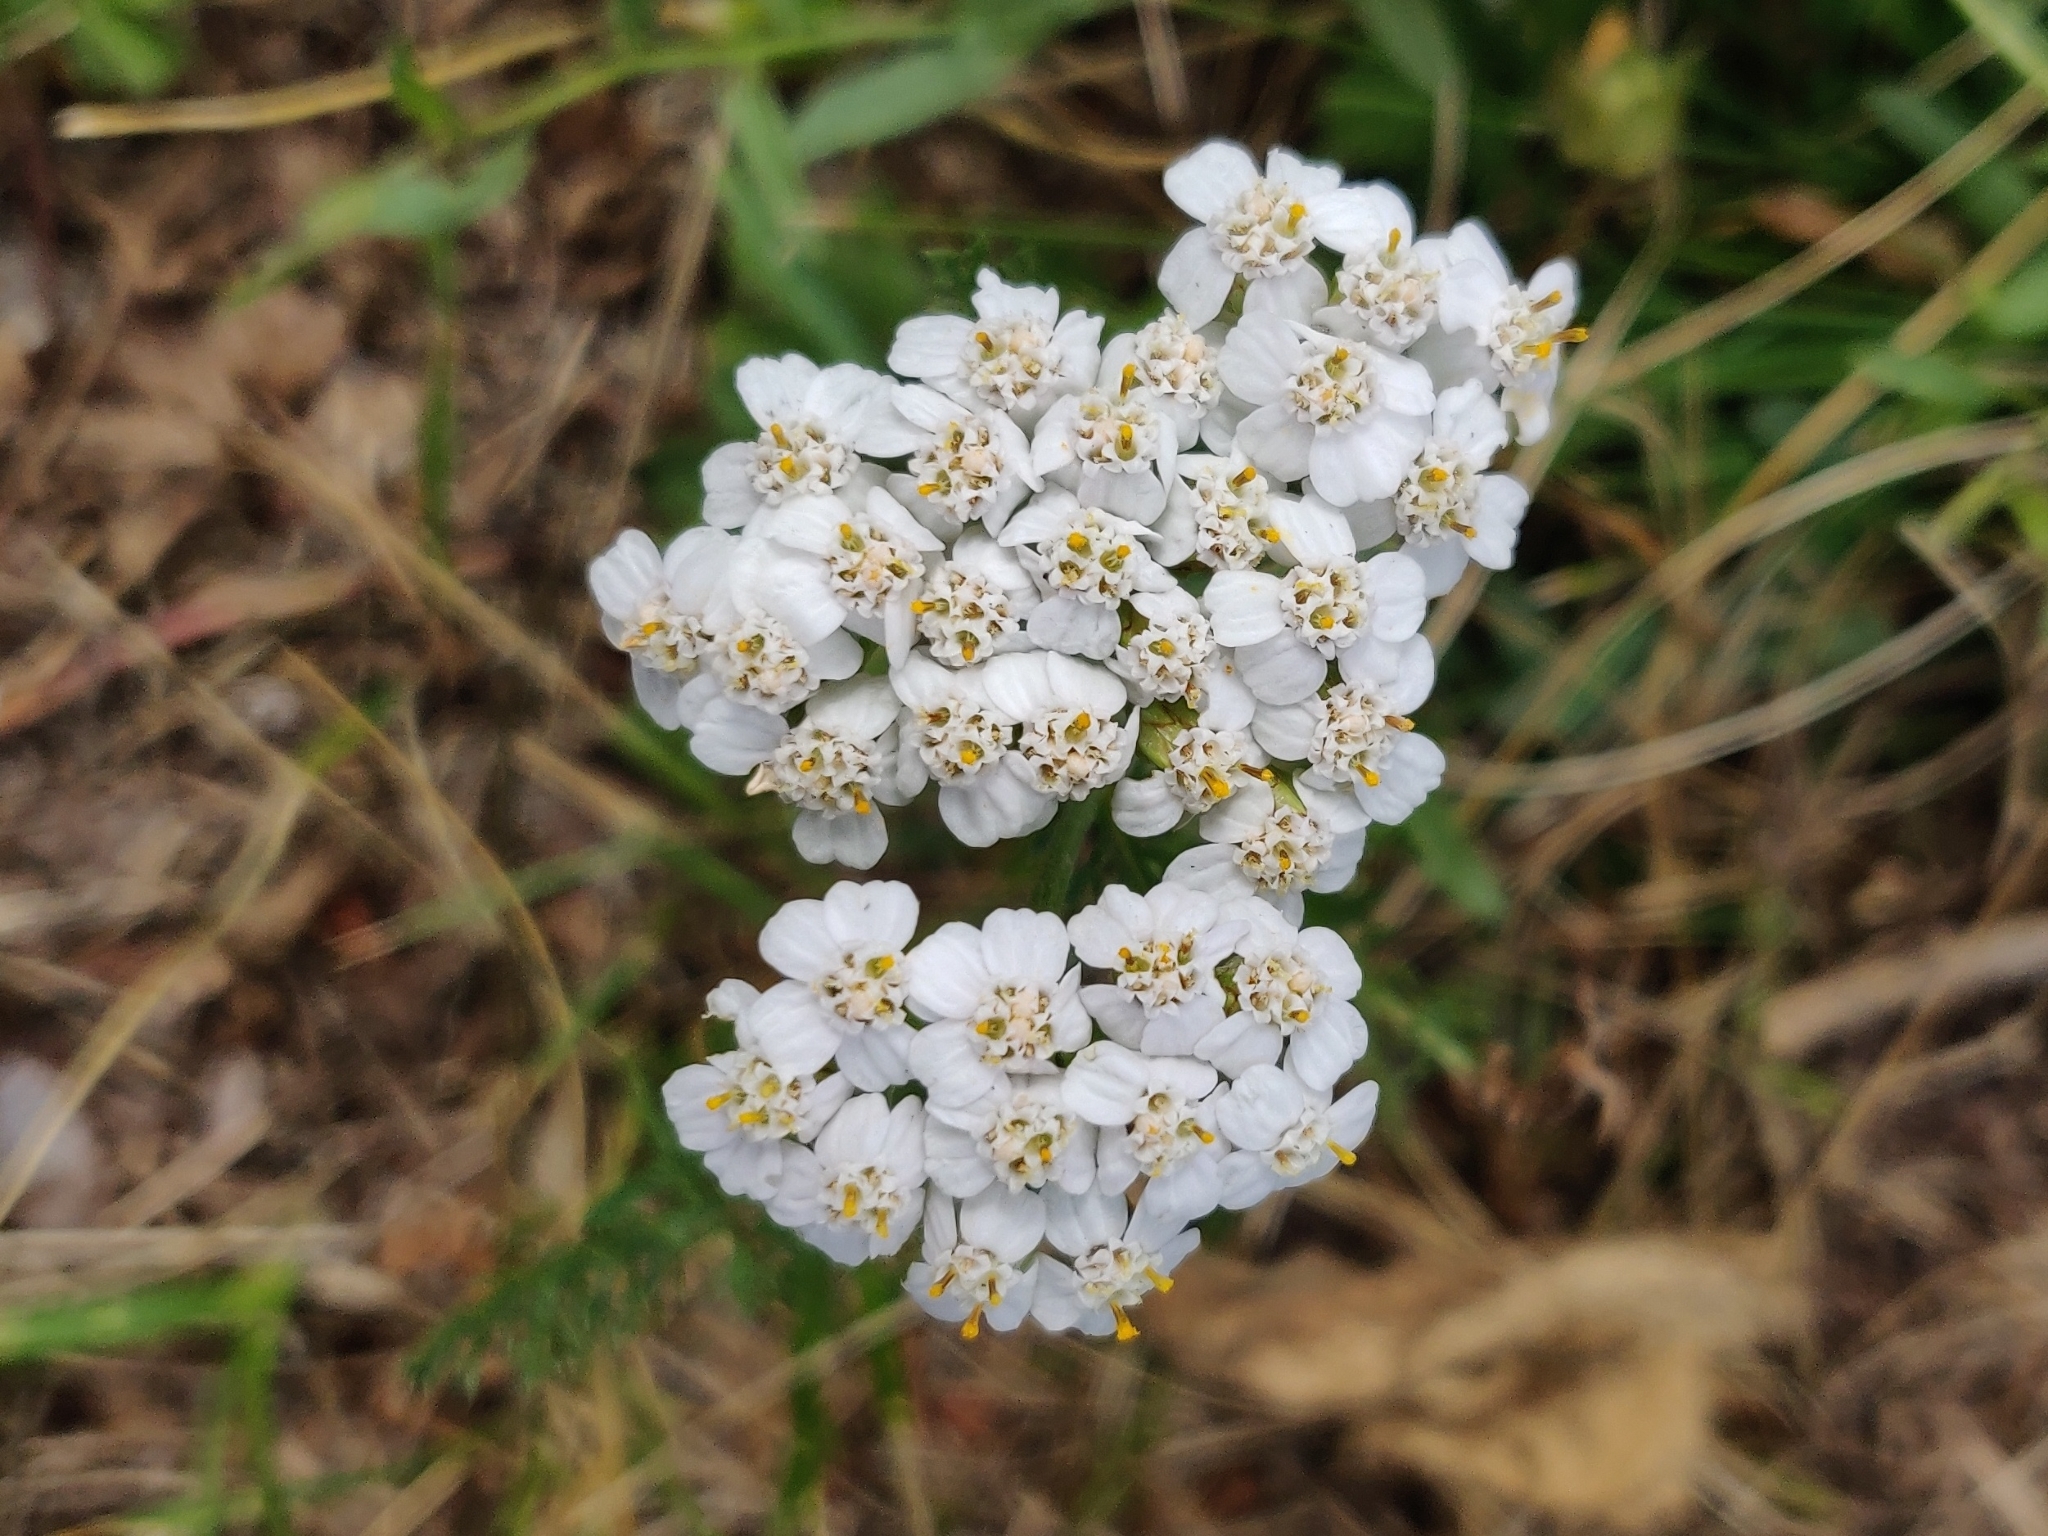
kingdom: Plantae
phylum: Tracheophyta
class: Magnoliopsida
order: Asterales
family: Asteraceae
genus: Achillea
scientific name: Achillea millefolium
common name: Yarrow
